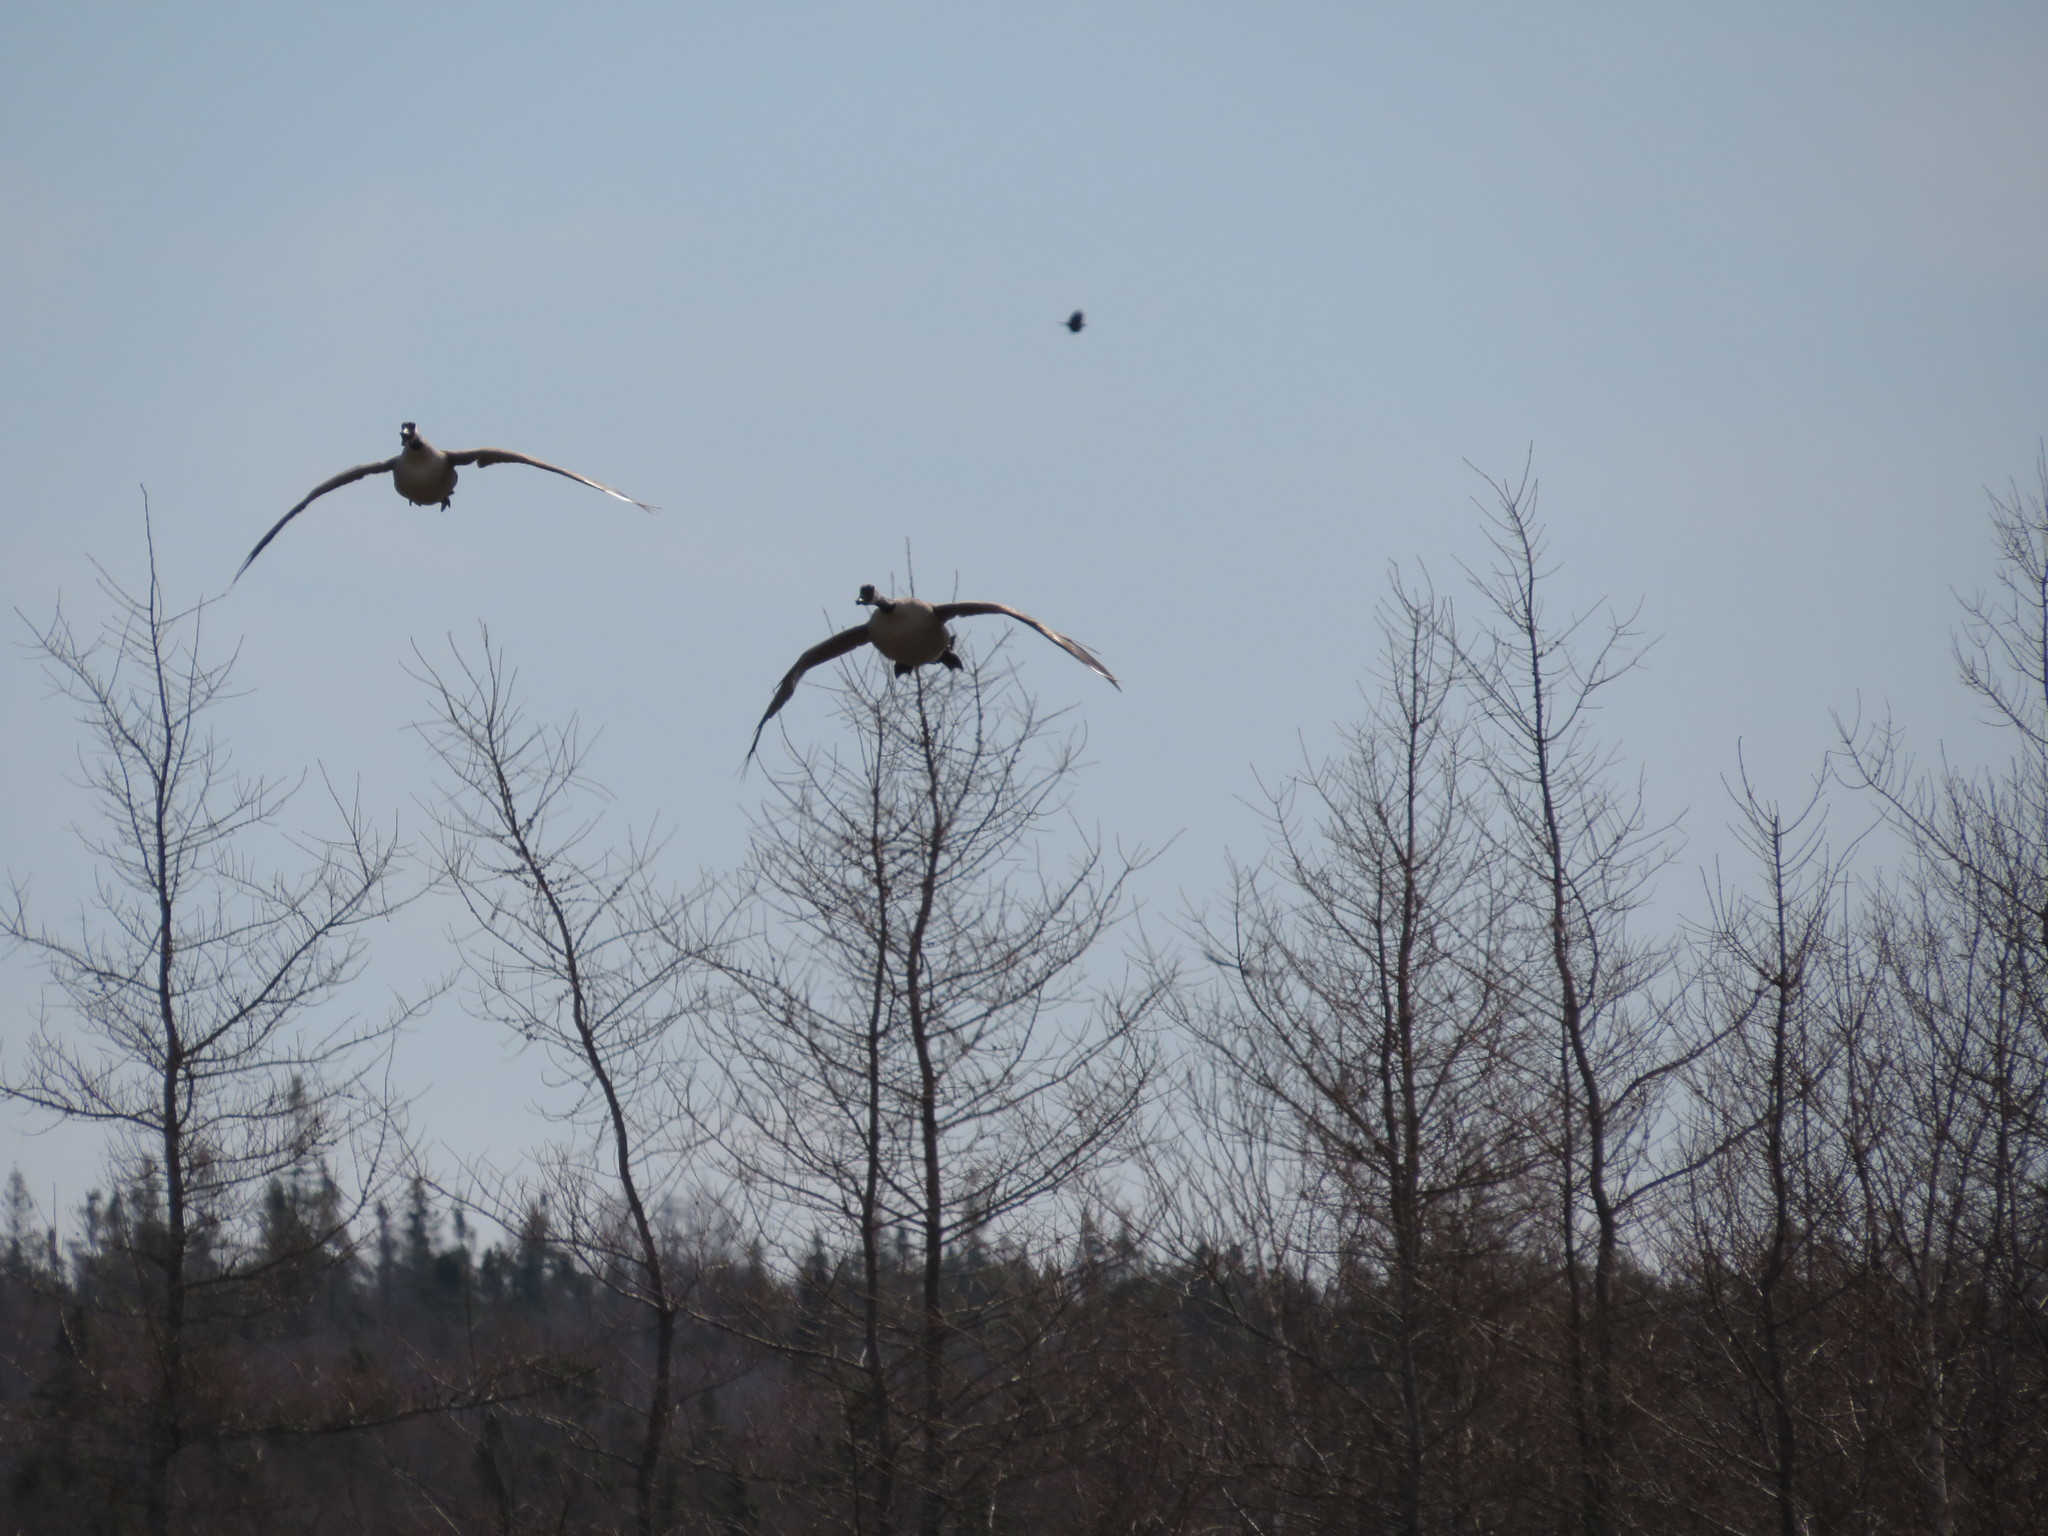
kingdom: Animalia
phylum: Chordata
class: Aves
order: Anseriformes
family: Anatidae
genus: Branta
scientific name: Branta canadensis
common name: Canada goose
